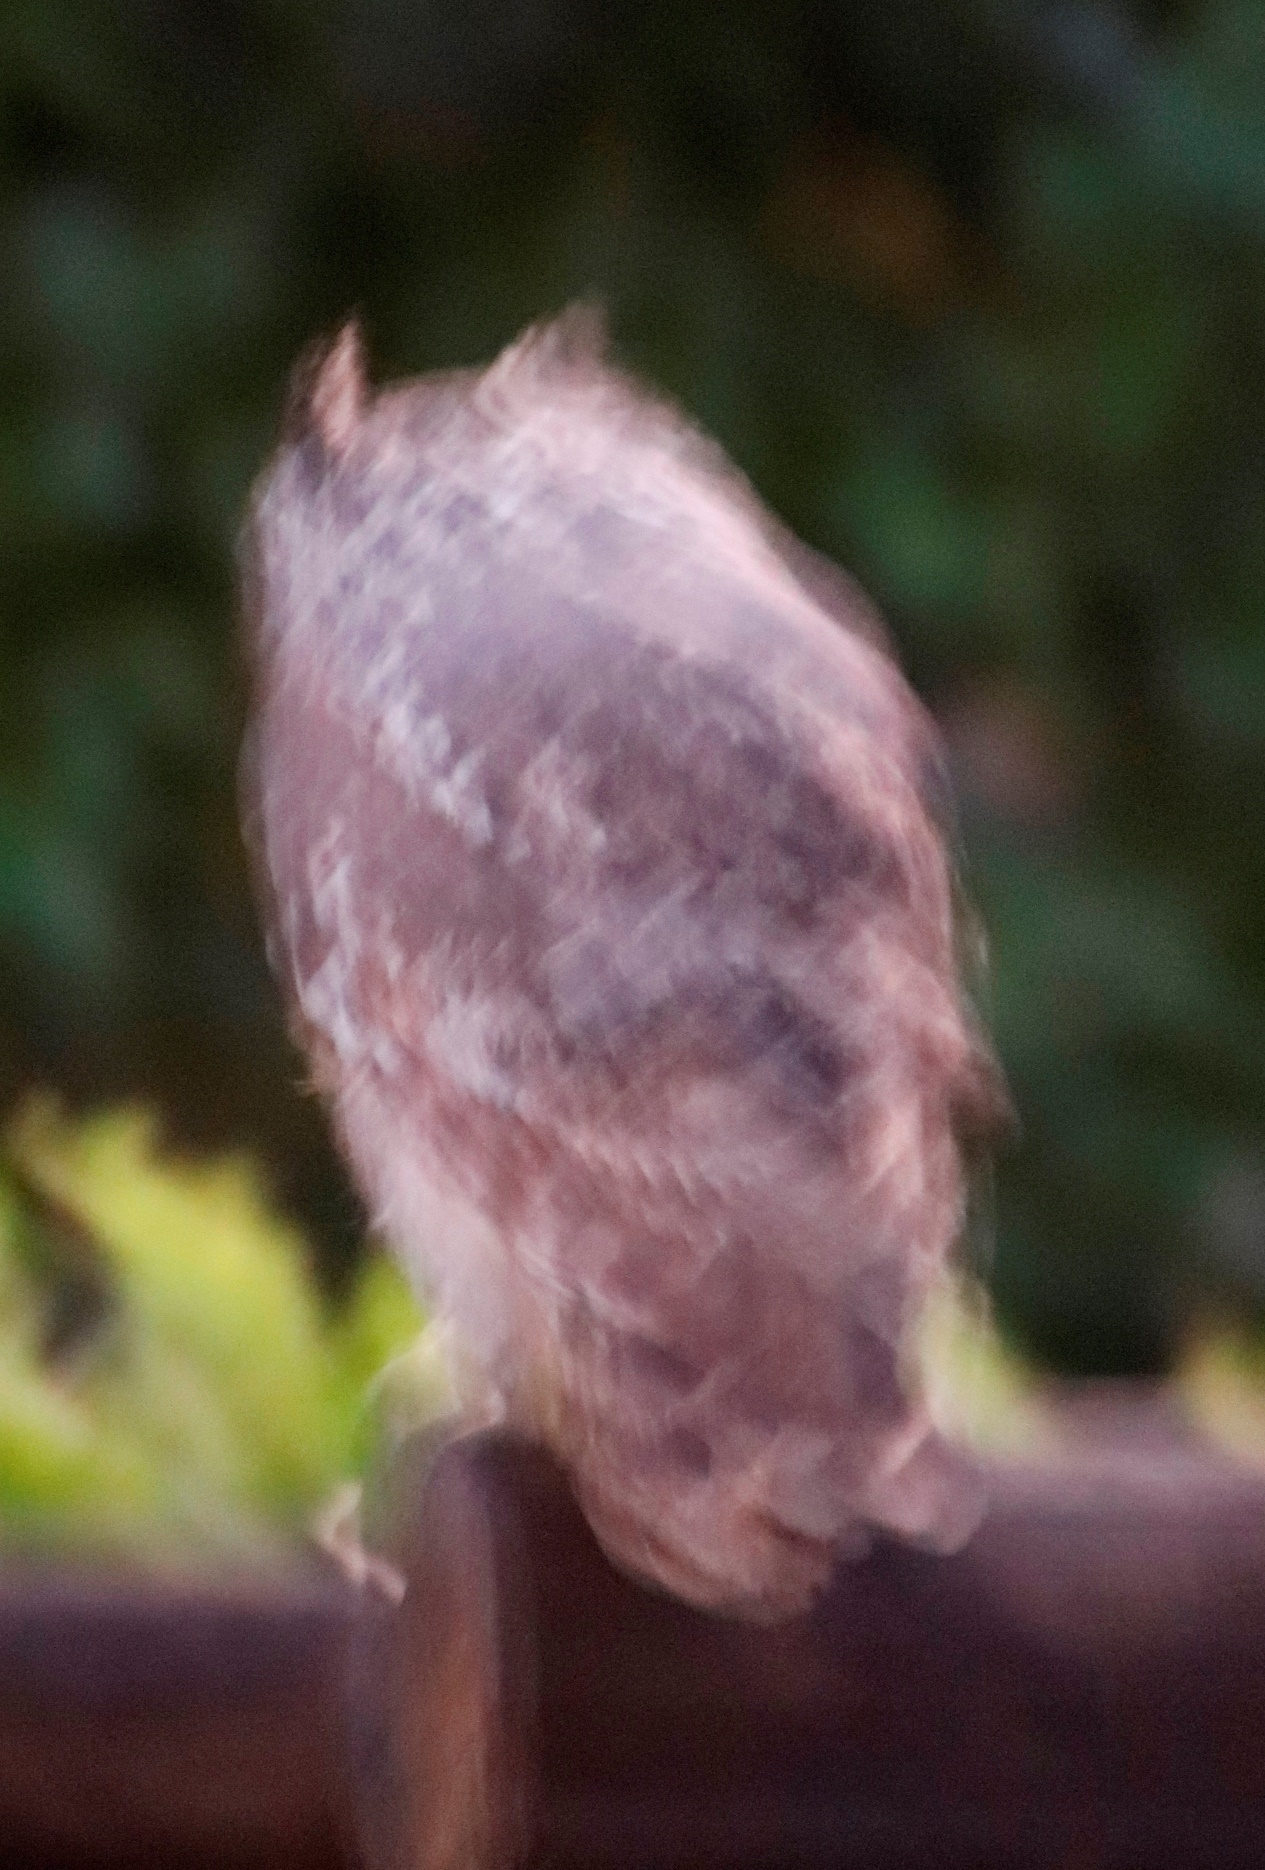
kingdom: Animalia
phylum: Chordata
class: Aves
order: Strigiformes
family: Strigidae
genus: Bubo
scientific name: Bubo africanus
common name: Spotted eagle-owl
